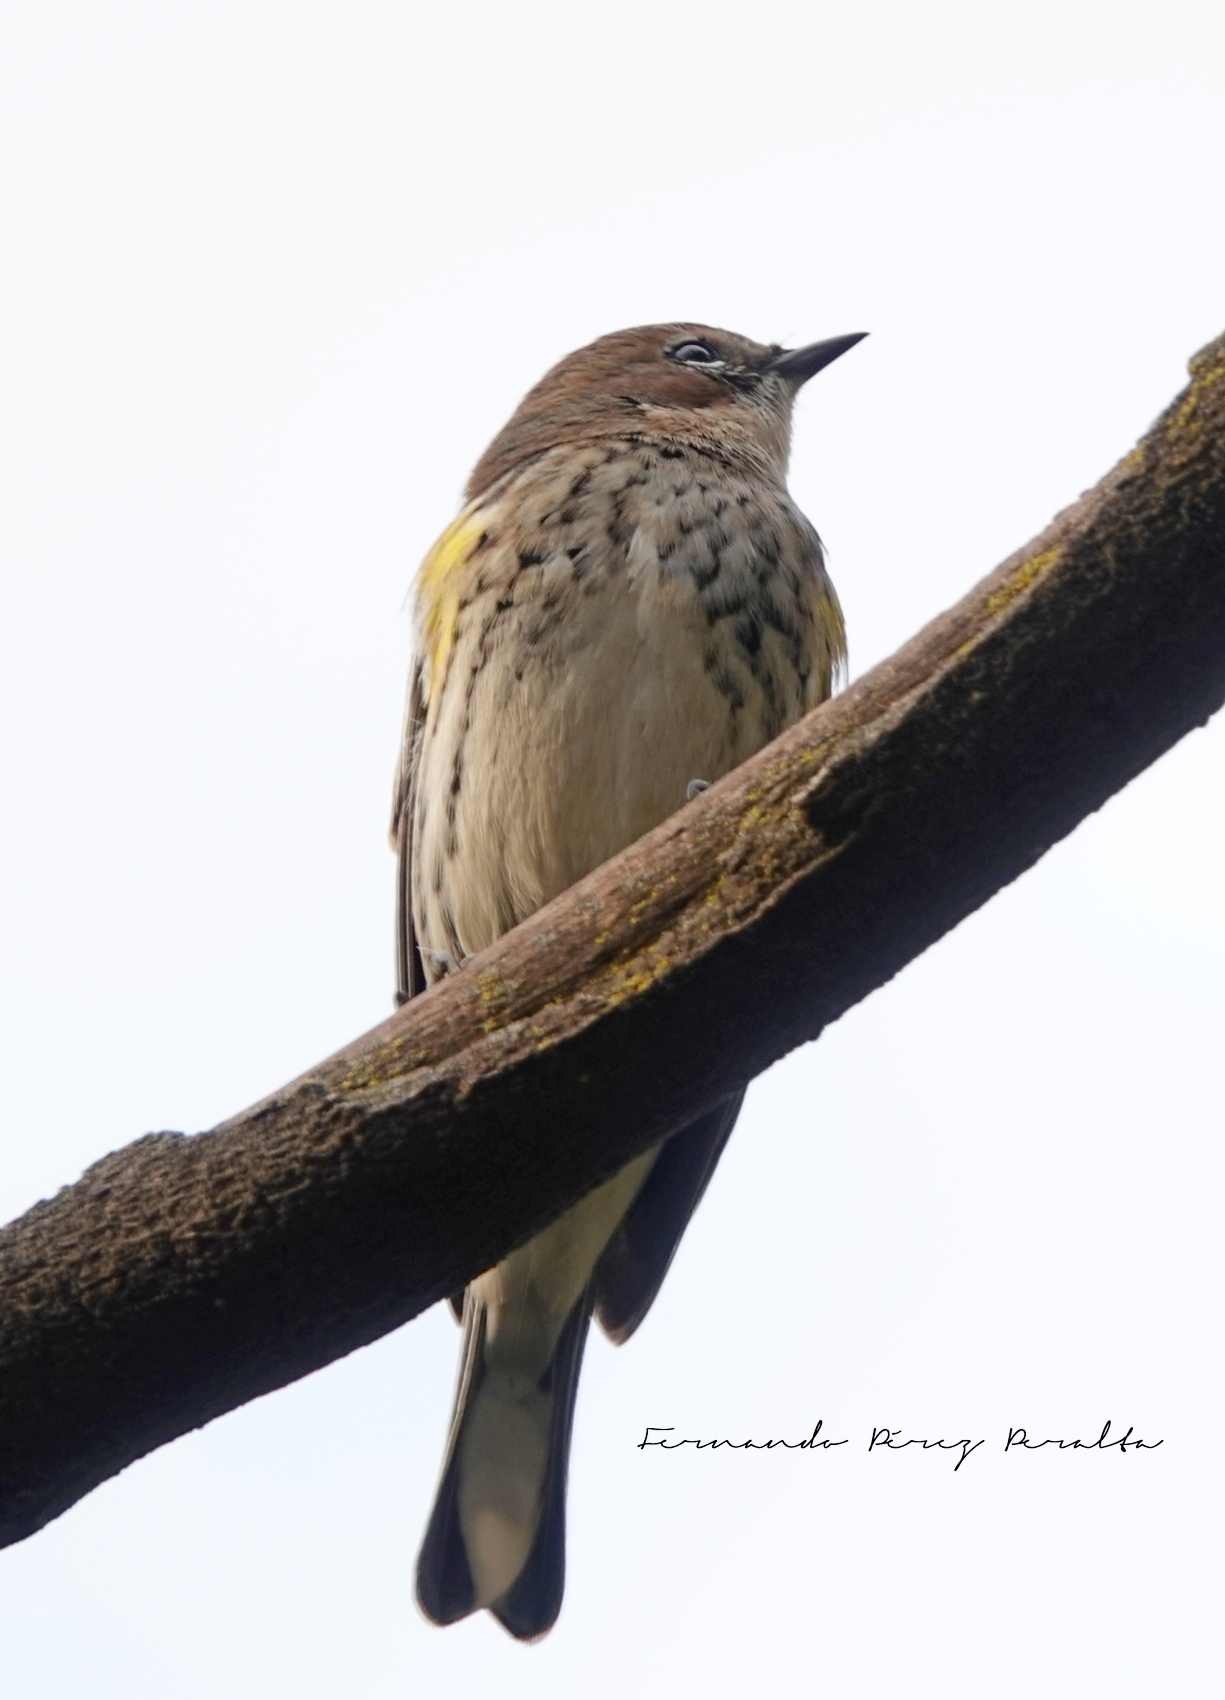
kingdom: Animalia
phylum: Chordata
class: Aves
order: Passeriformes
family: Parulidae
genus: Setophaga
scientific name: Setophaga coronata
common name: Myrtle warbler
